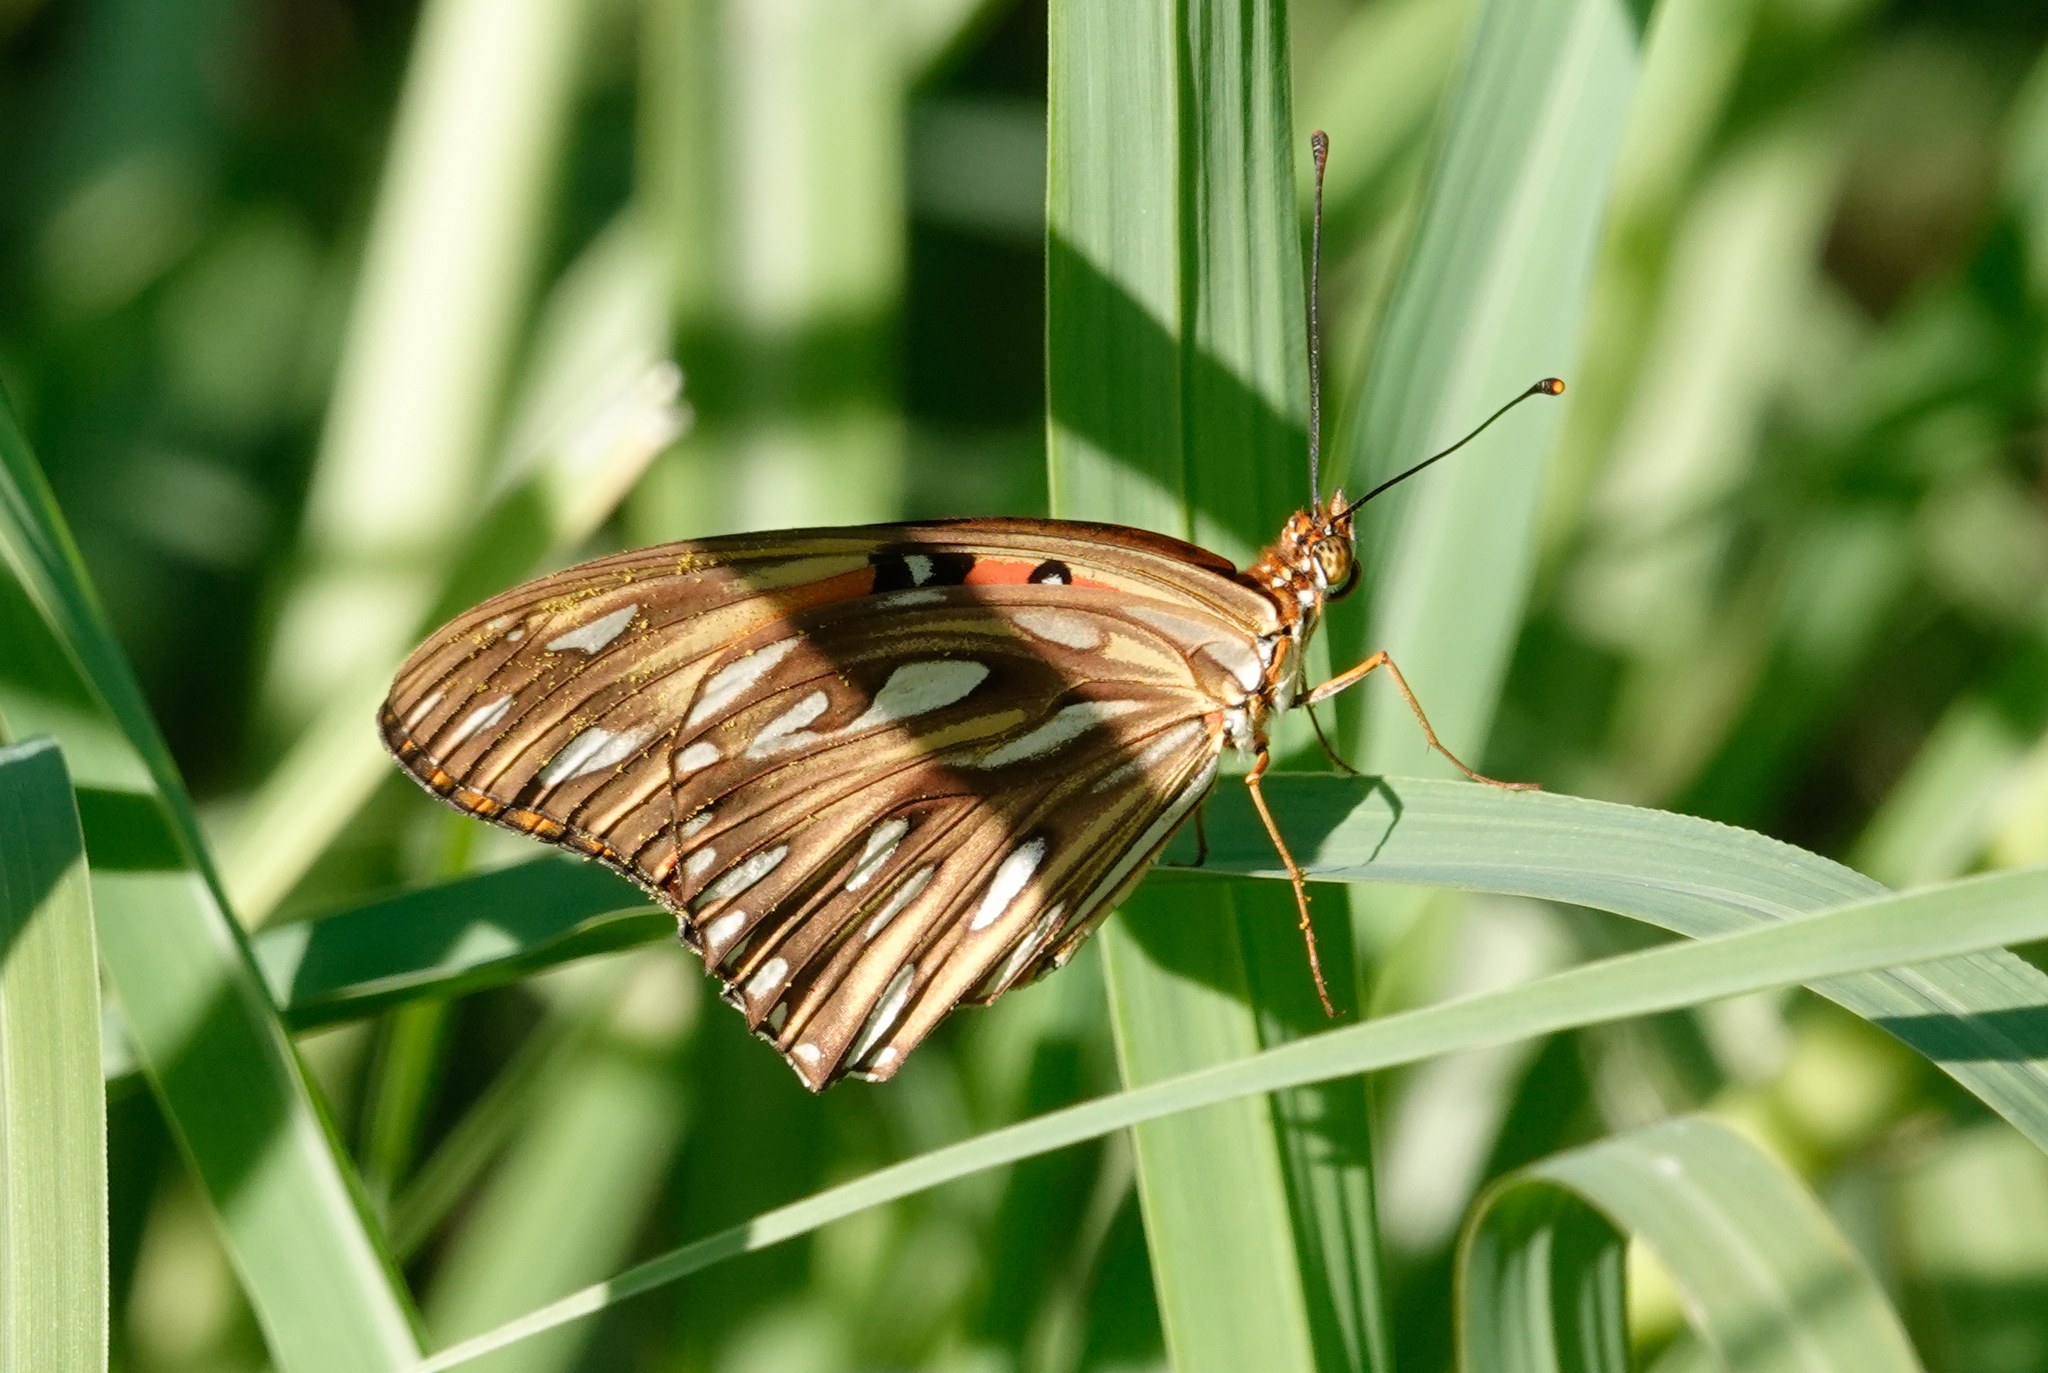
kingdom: Animalia
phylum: Arthropoda
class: Insecta
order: Lepidoptera
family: Nymphalidae
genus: Dione
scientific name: Dione vanillae
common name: Gulf fritillary
